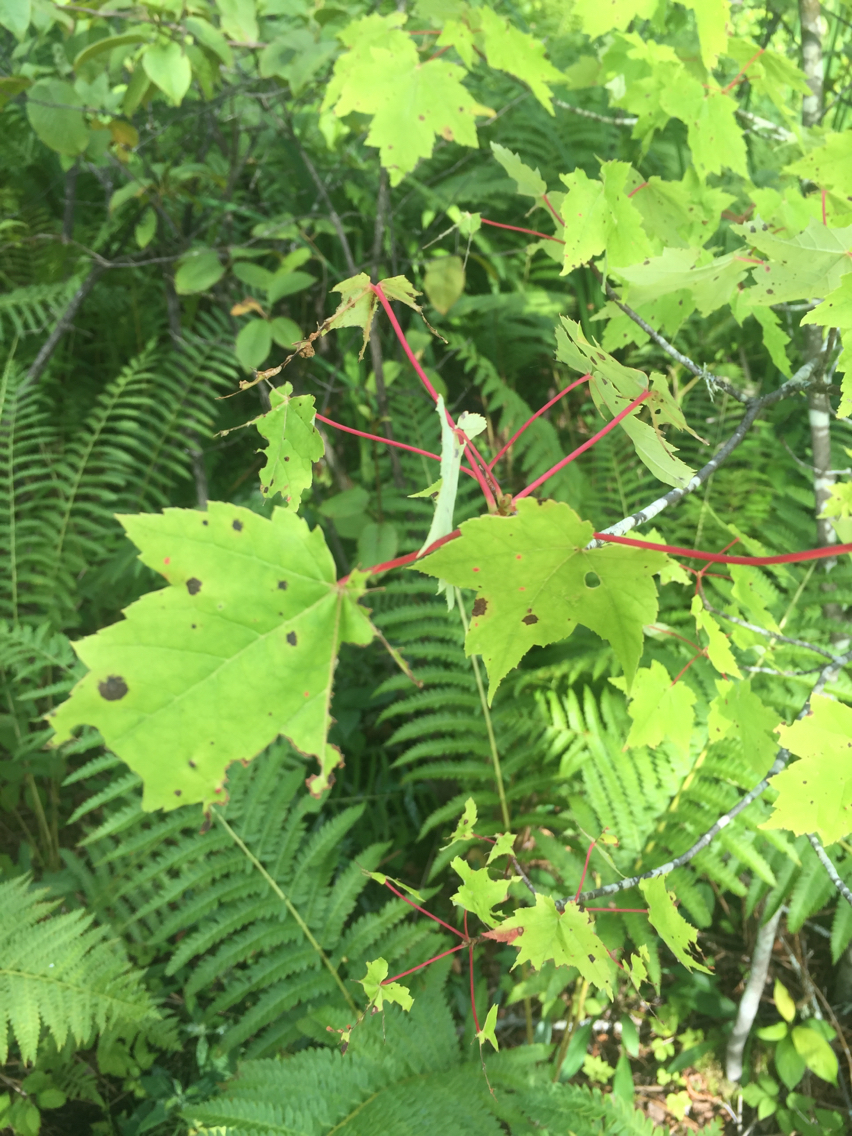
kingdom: Plantae
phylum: Tracheophyta
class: Magnoliopsida
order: Sapindales
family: Sapindaceae
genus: Acer
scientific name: Acer rubrum
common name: Red maple
